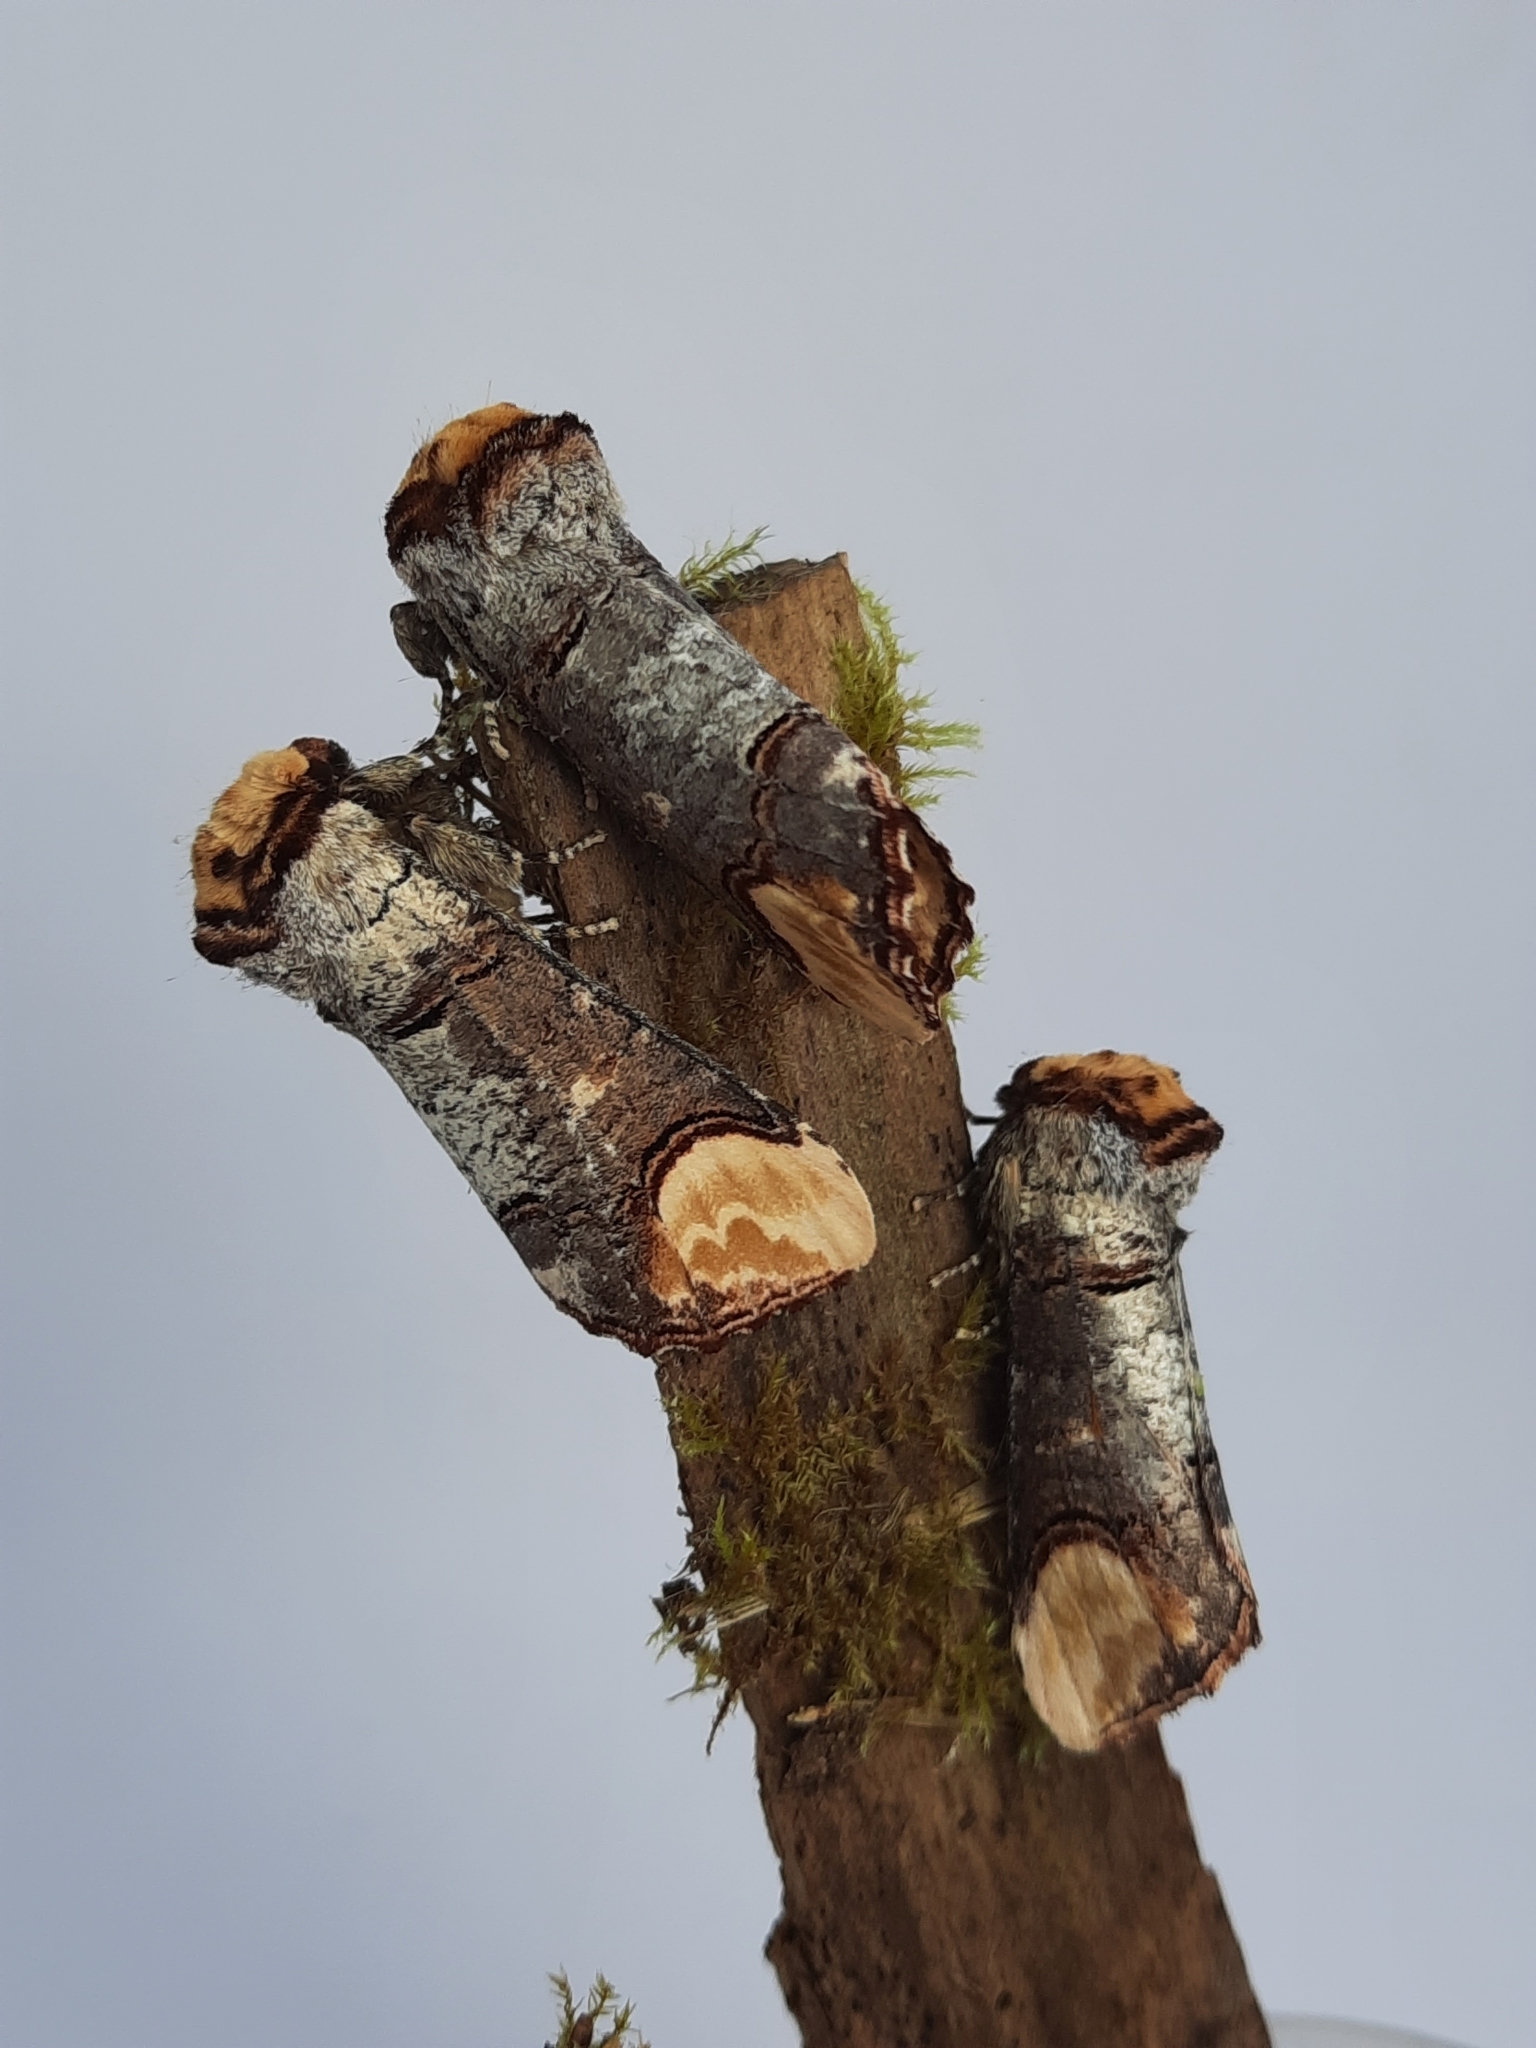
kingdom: Animalia
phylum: Arthropoda
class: Insecta
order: Lepidoptera
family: Notodontidae
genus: Phalera
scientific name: Phalera bucephala
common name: Buff-tip
